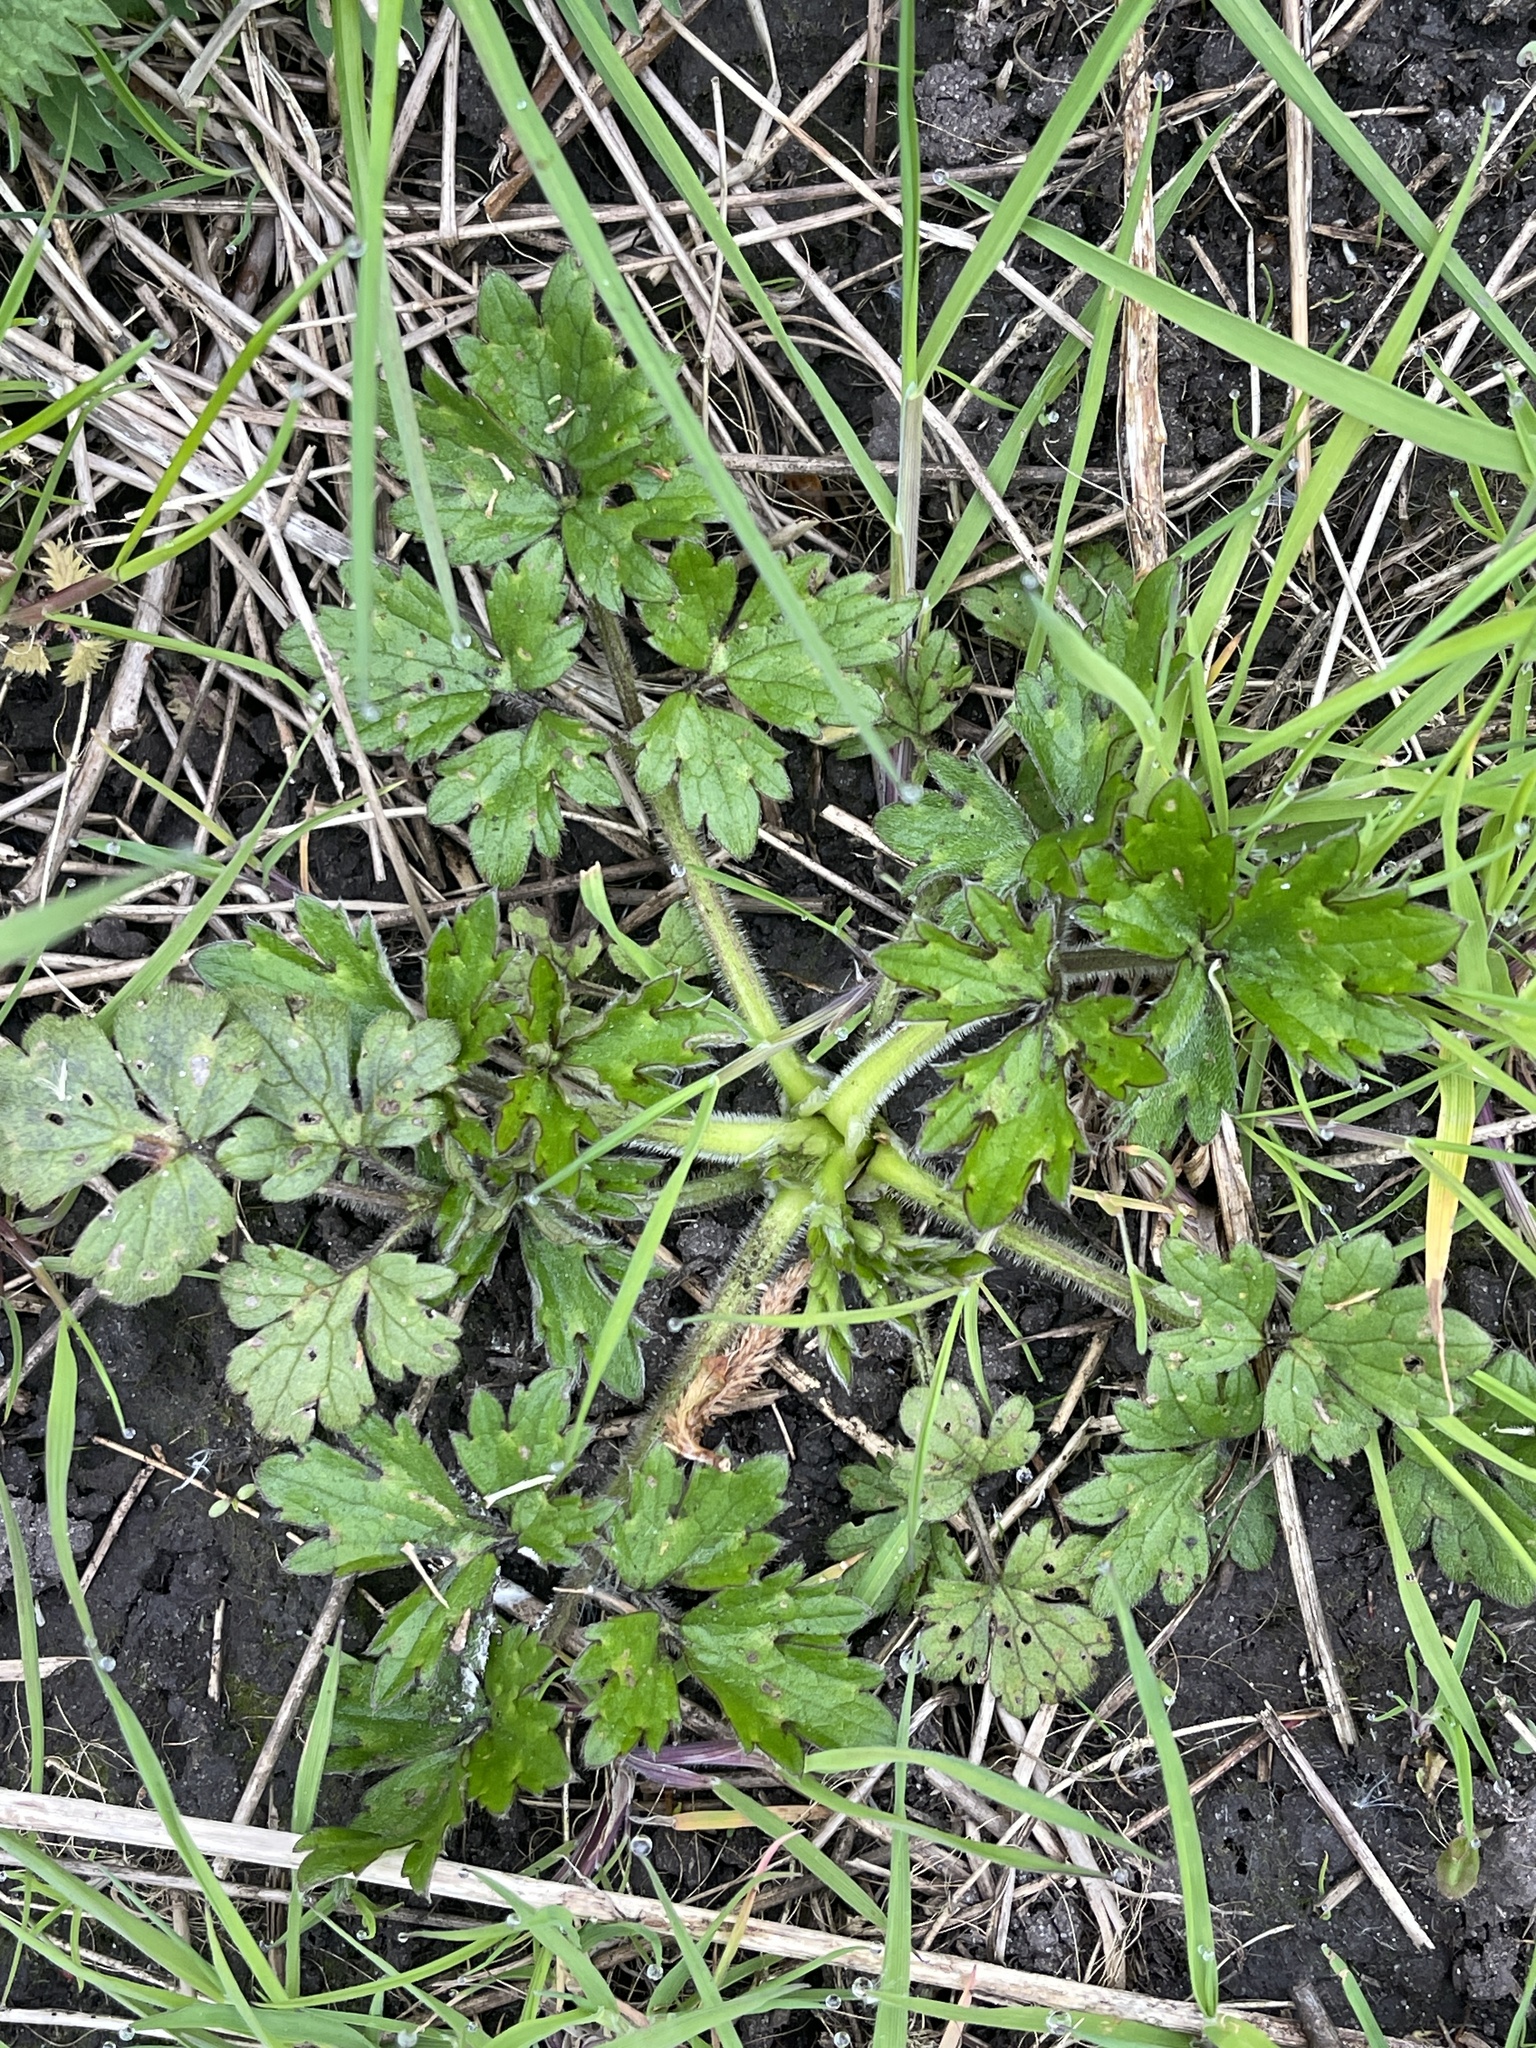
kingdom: Plantae
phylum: Tracheophyta
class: Magnoliopsida
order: Ranunculales
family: Ranunculaceae
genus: Ranunculus
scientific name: Ranunculus repens
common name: Creeping buttercup
